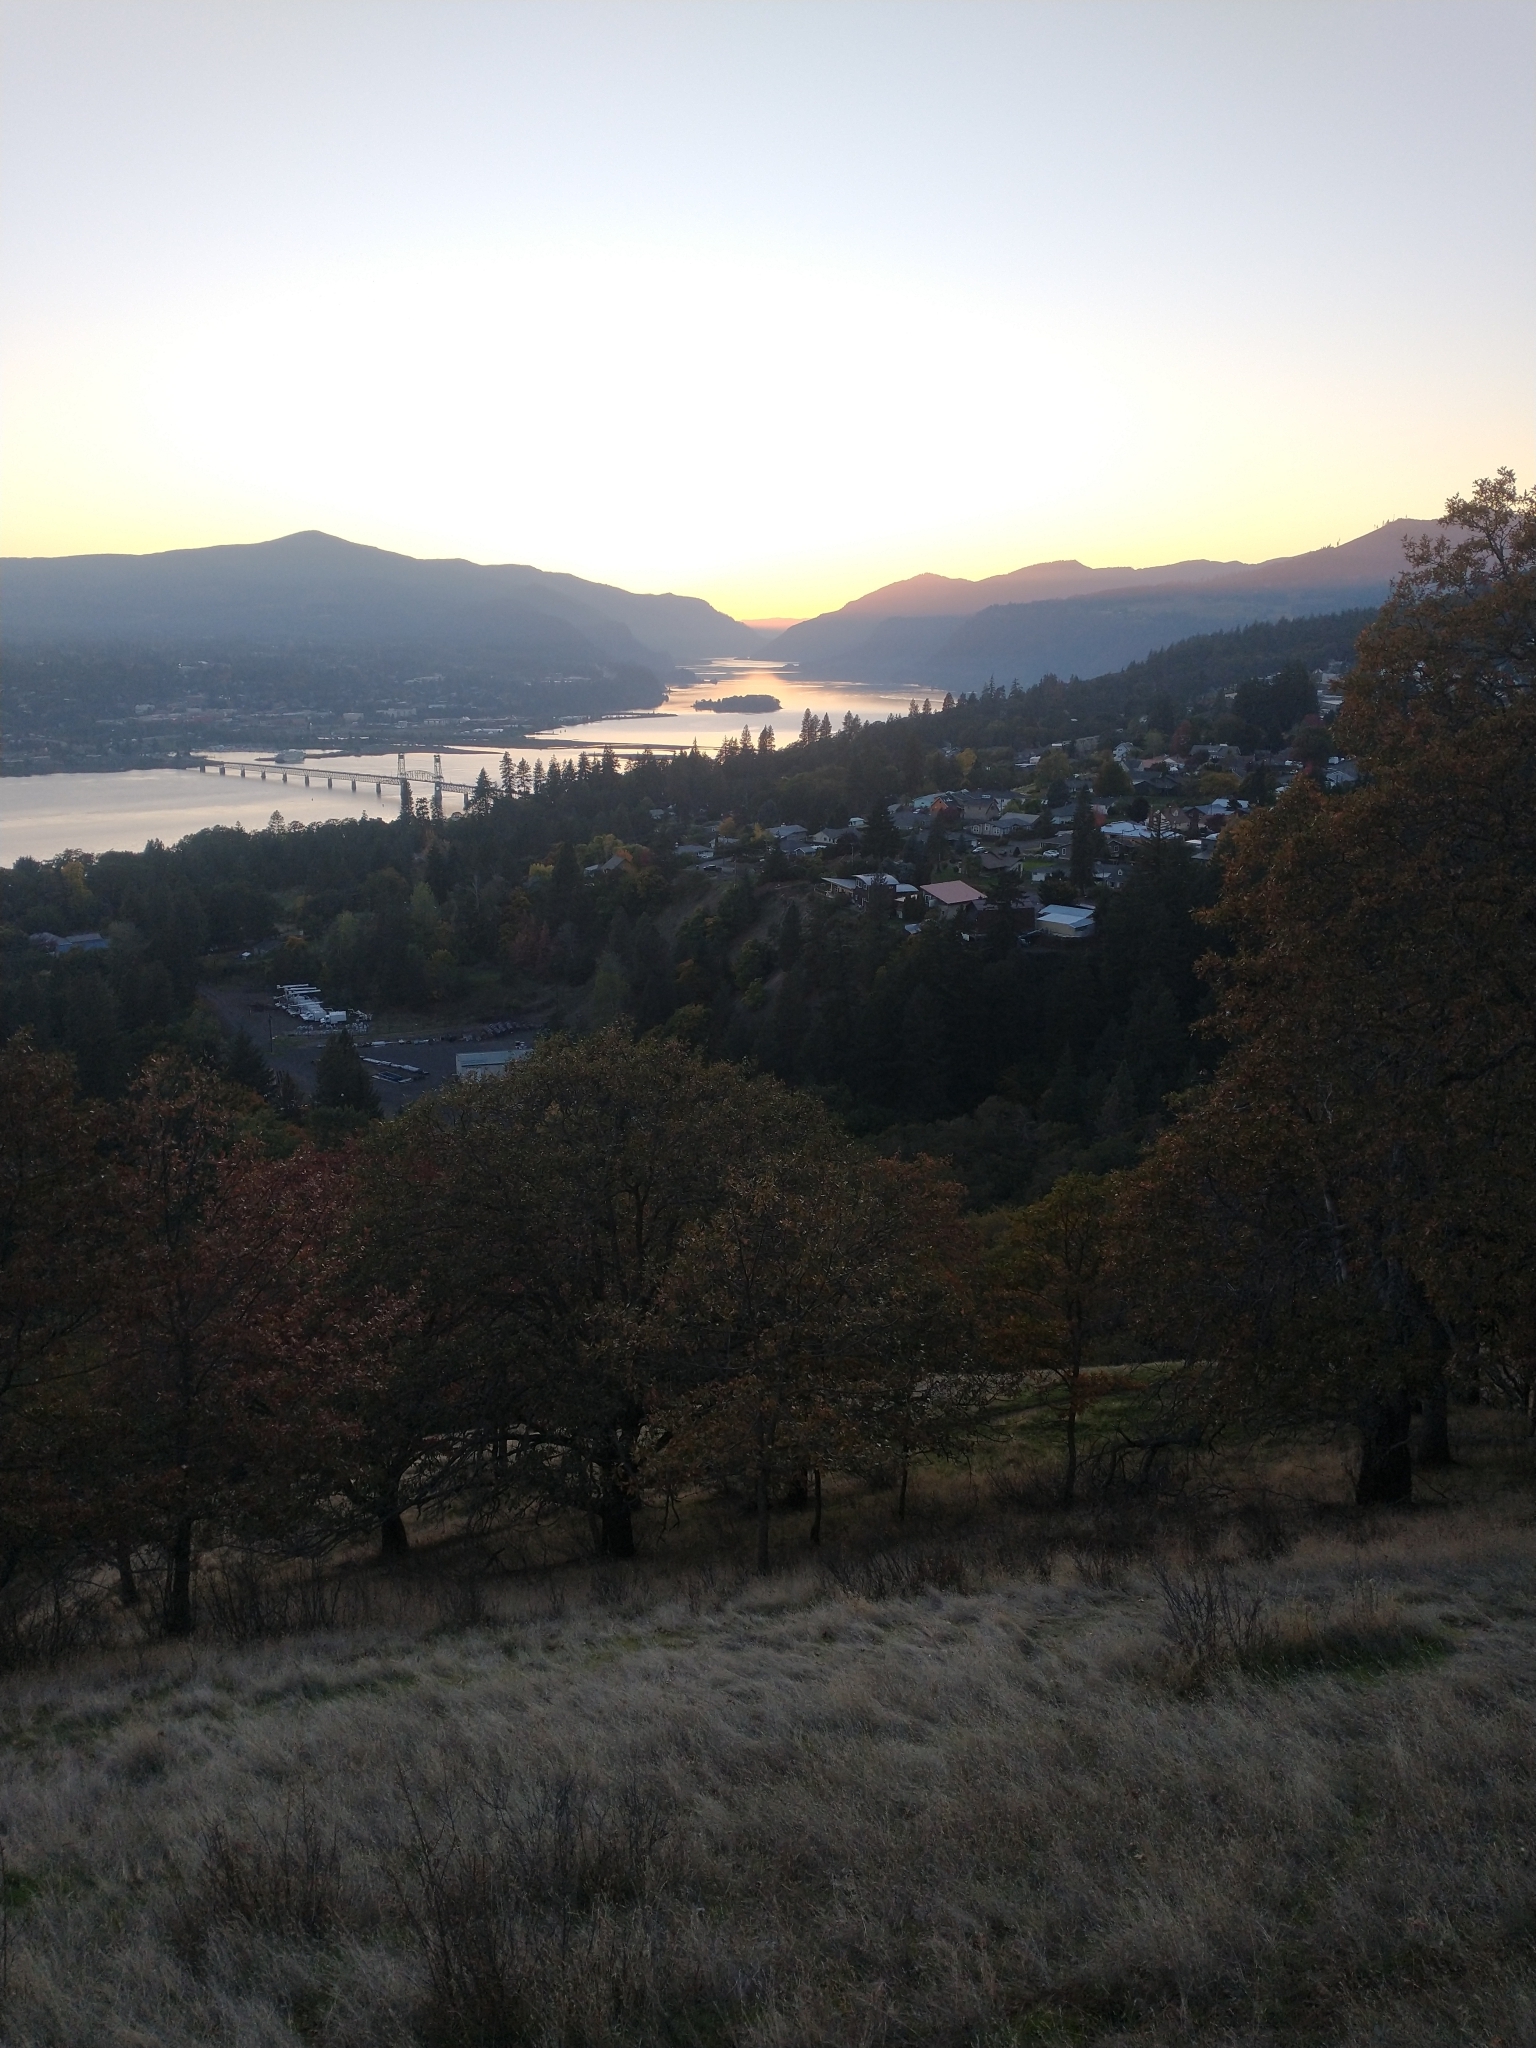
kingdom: Plantae
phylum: Tracheophyta
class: Magnoliopsida
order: Fagales
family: Fagaceae
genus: Quercus
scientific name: Quercus garryana
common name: Garry oak
